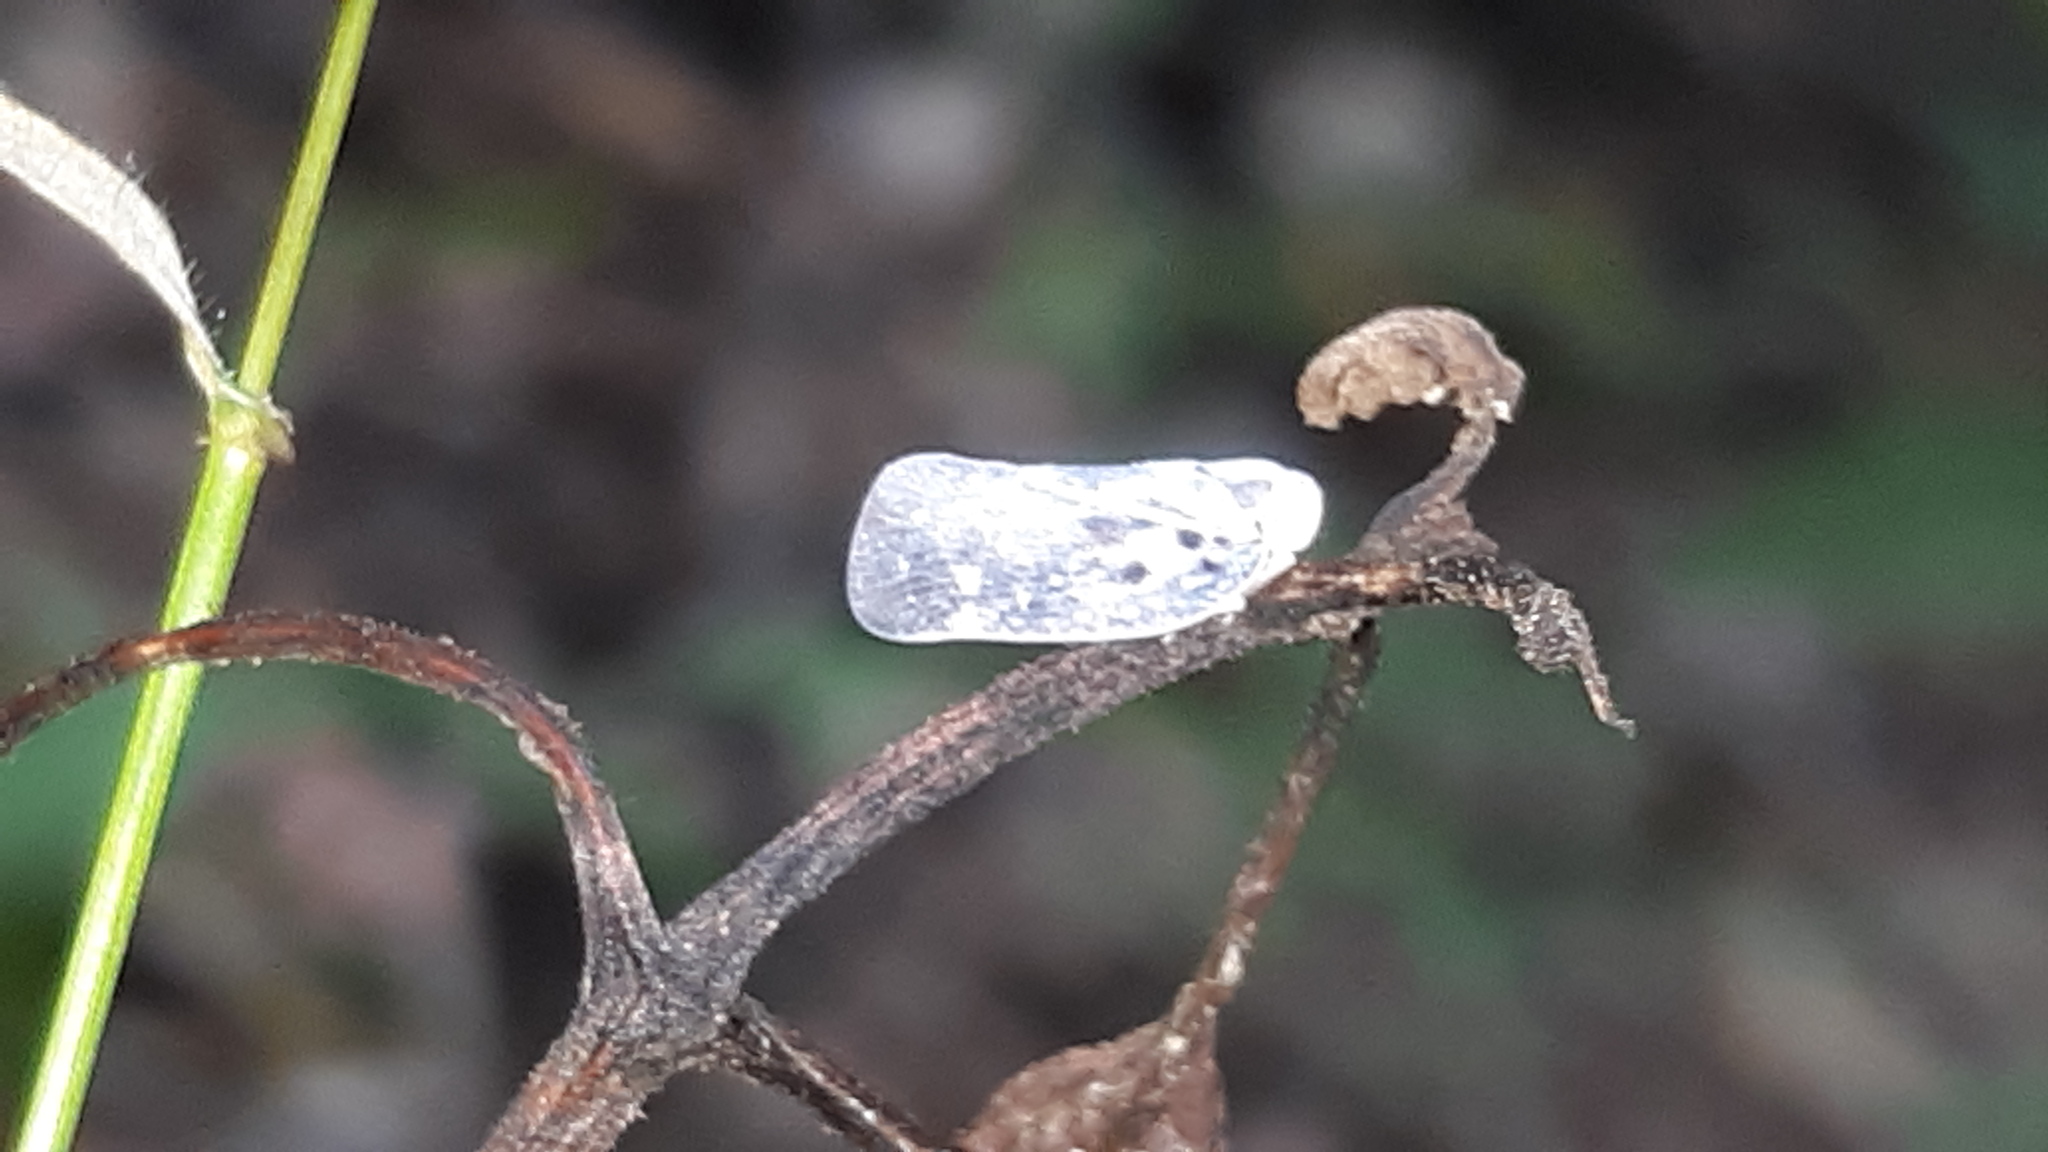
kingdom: Animalia
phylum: Arthropoda
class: Insecta
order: Hemiptera
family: Flatidae
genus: Metcalfa
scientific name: Metcalfa pruinosa
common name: Citrus flatid planthopper
